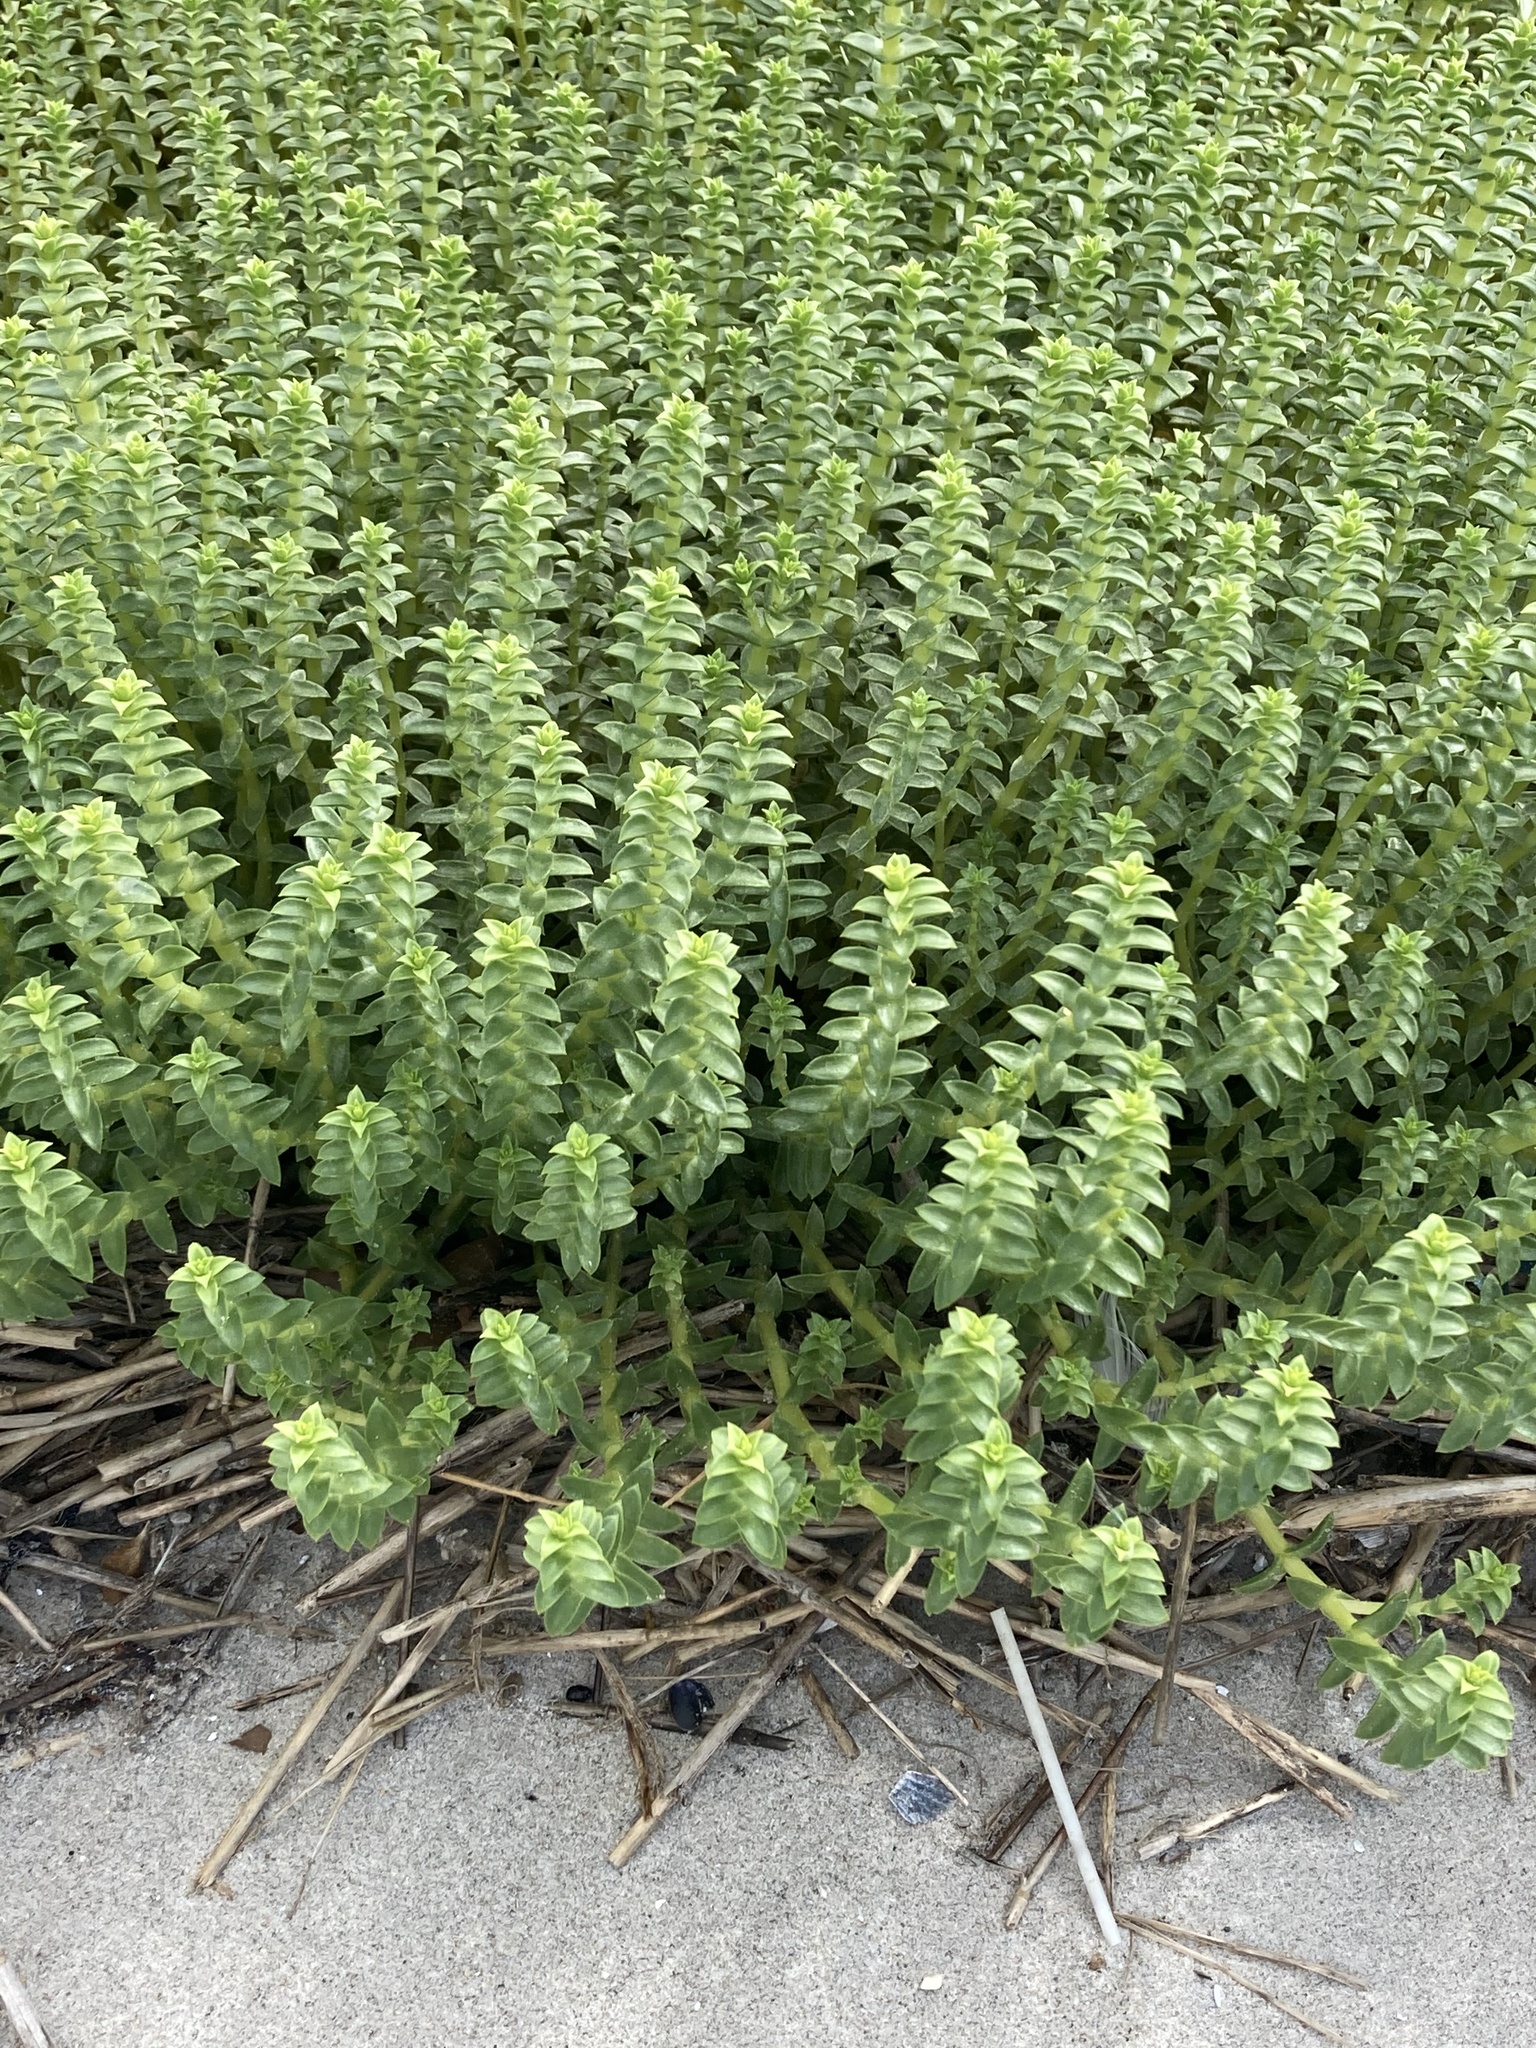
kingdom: Plantae
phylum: Tracheophyta
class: Magnoliopsida
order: Caryophyllales
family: Caryophyllaceae
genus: Honckenya
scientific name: Honckenya peploides
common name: Sea sandwort
